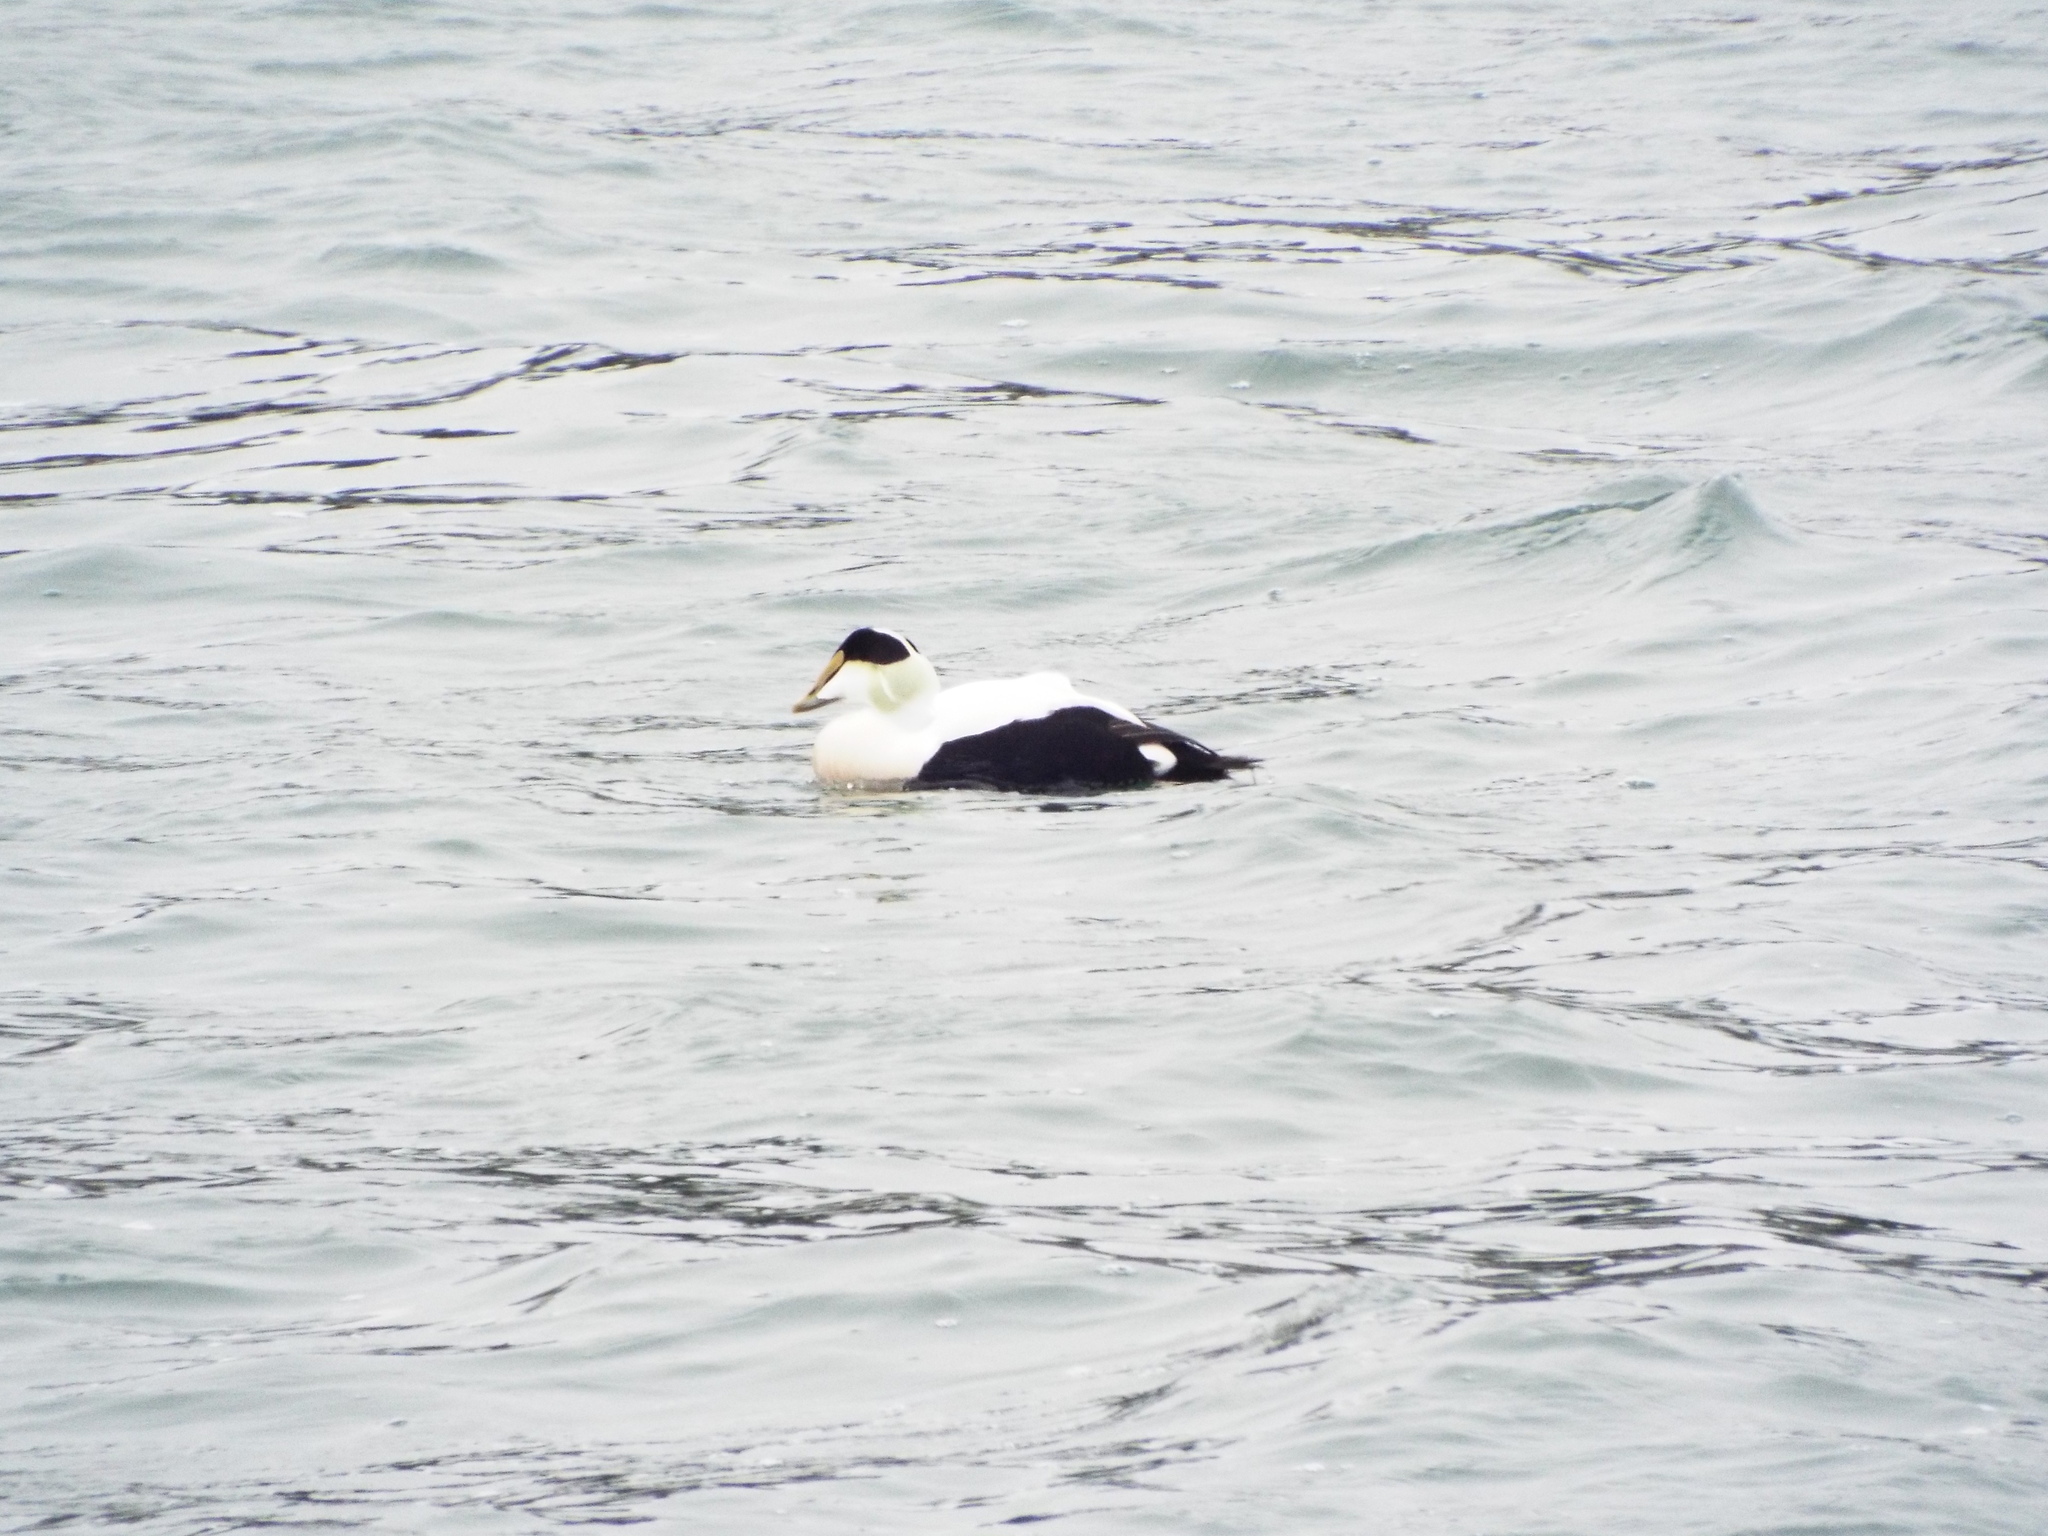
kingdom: Animalia
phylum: Chordata
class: Aves
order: Anseriformes
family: Anatidae
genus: Somateria
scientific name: Somateria mollissima
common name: Common eider
